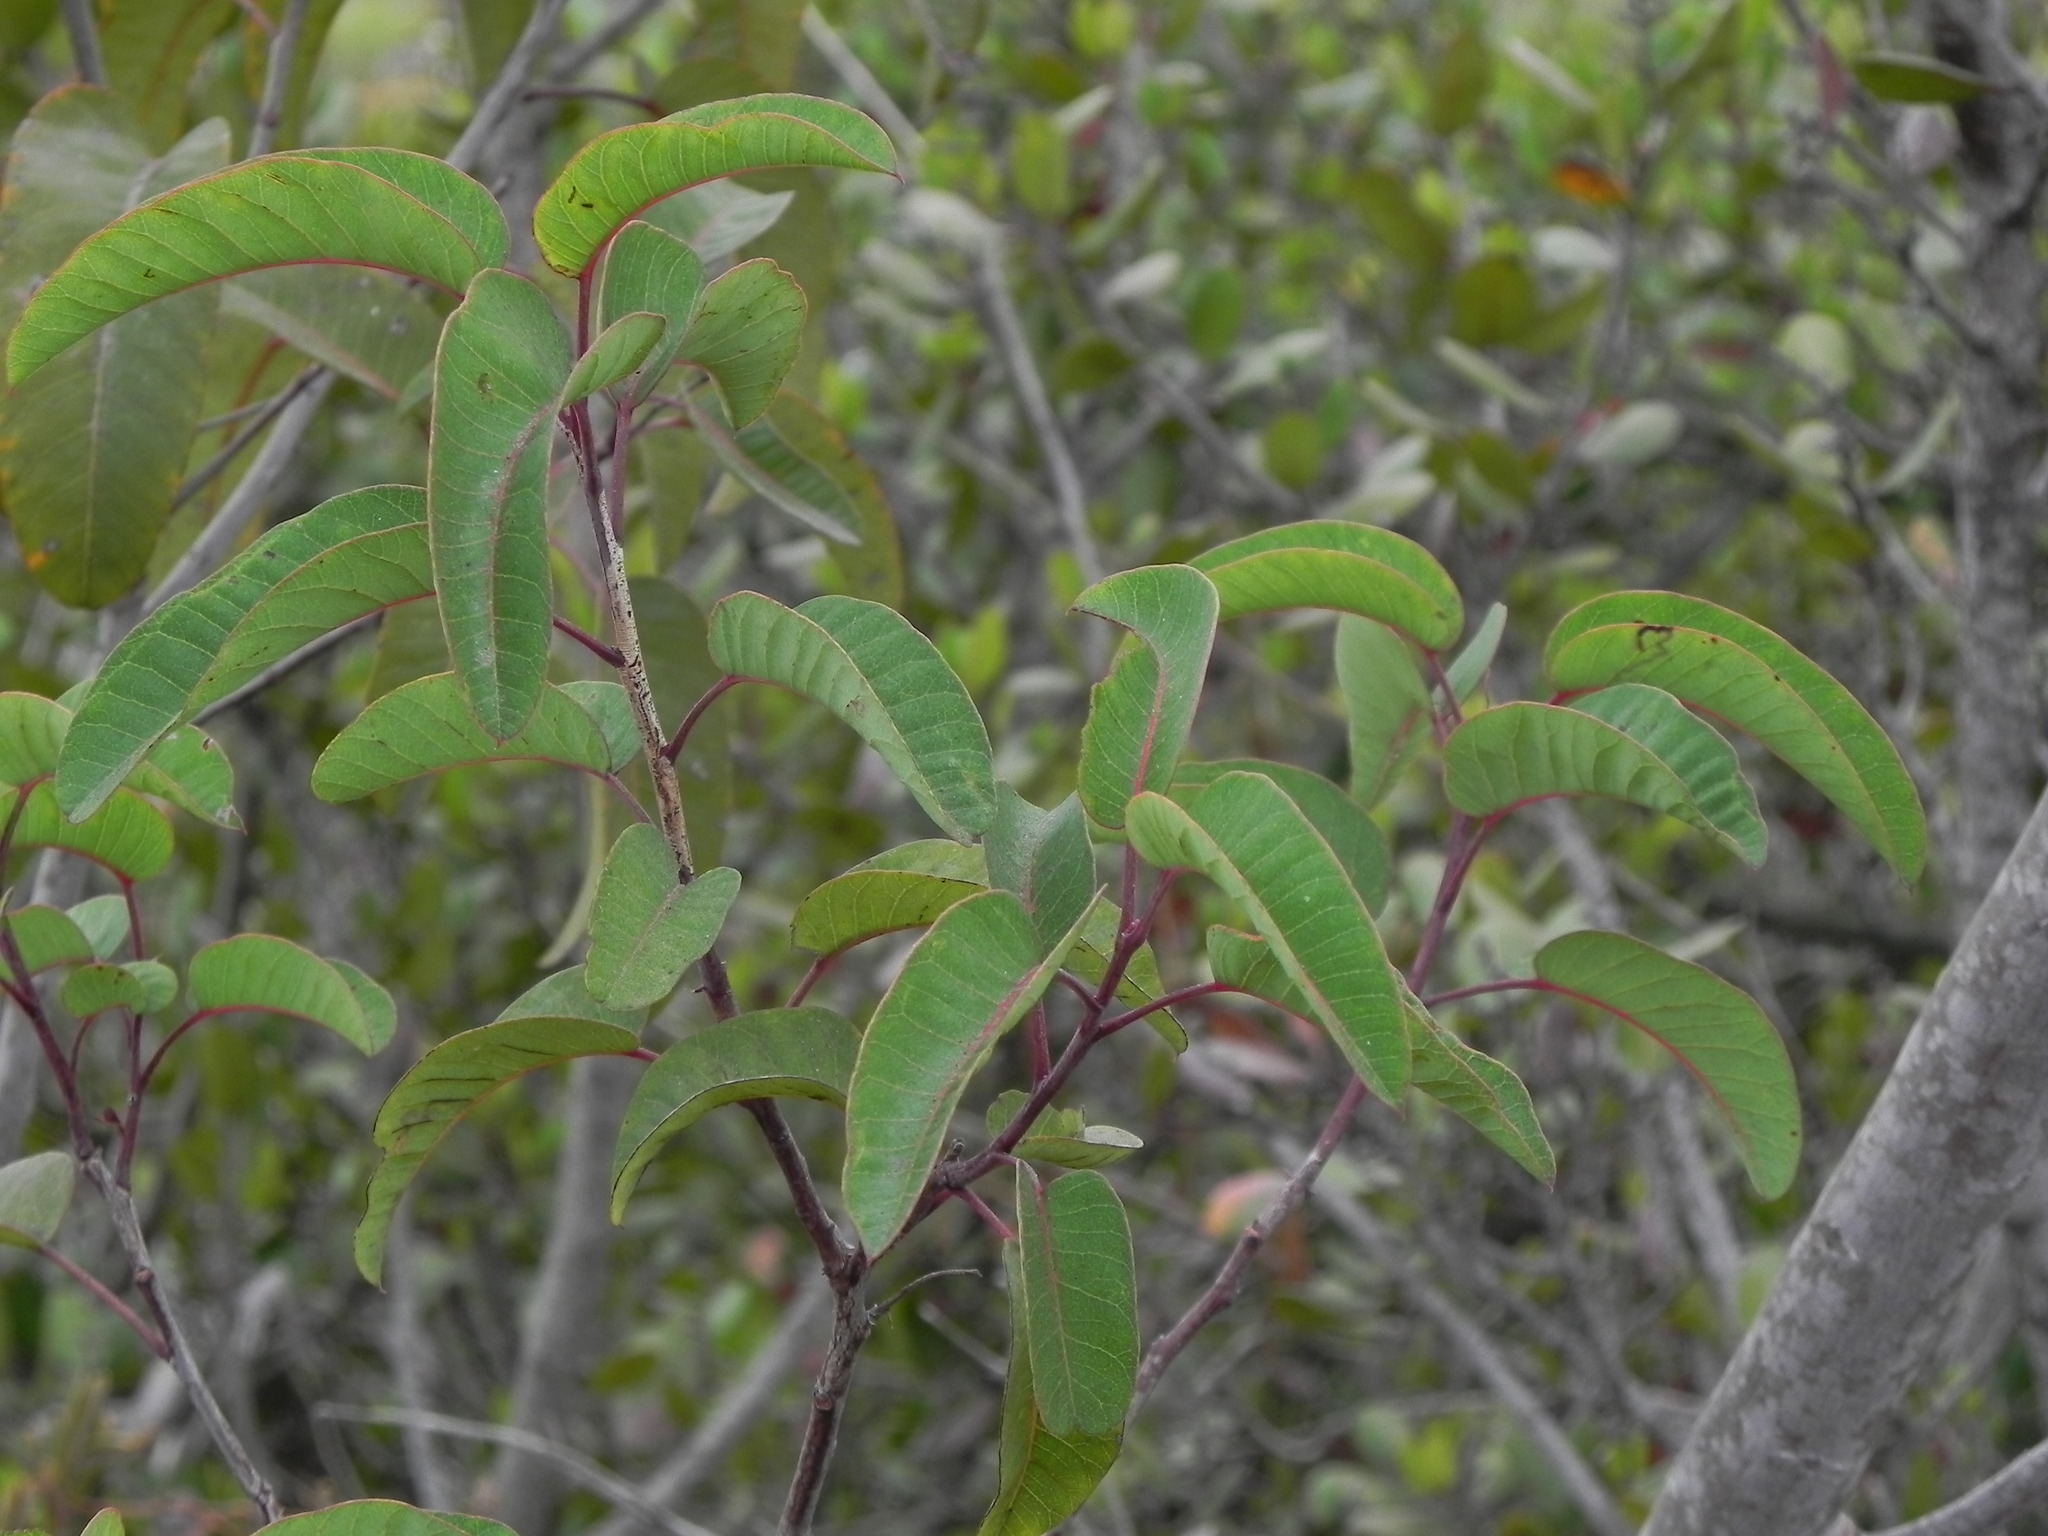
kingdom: Plantae
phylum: Tracheophyta
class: Magnoliopsida
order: Sapindales
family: Anacardiaceae
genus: Malosma
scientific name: Malosma laurina
